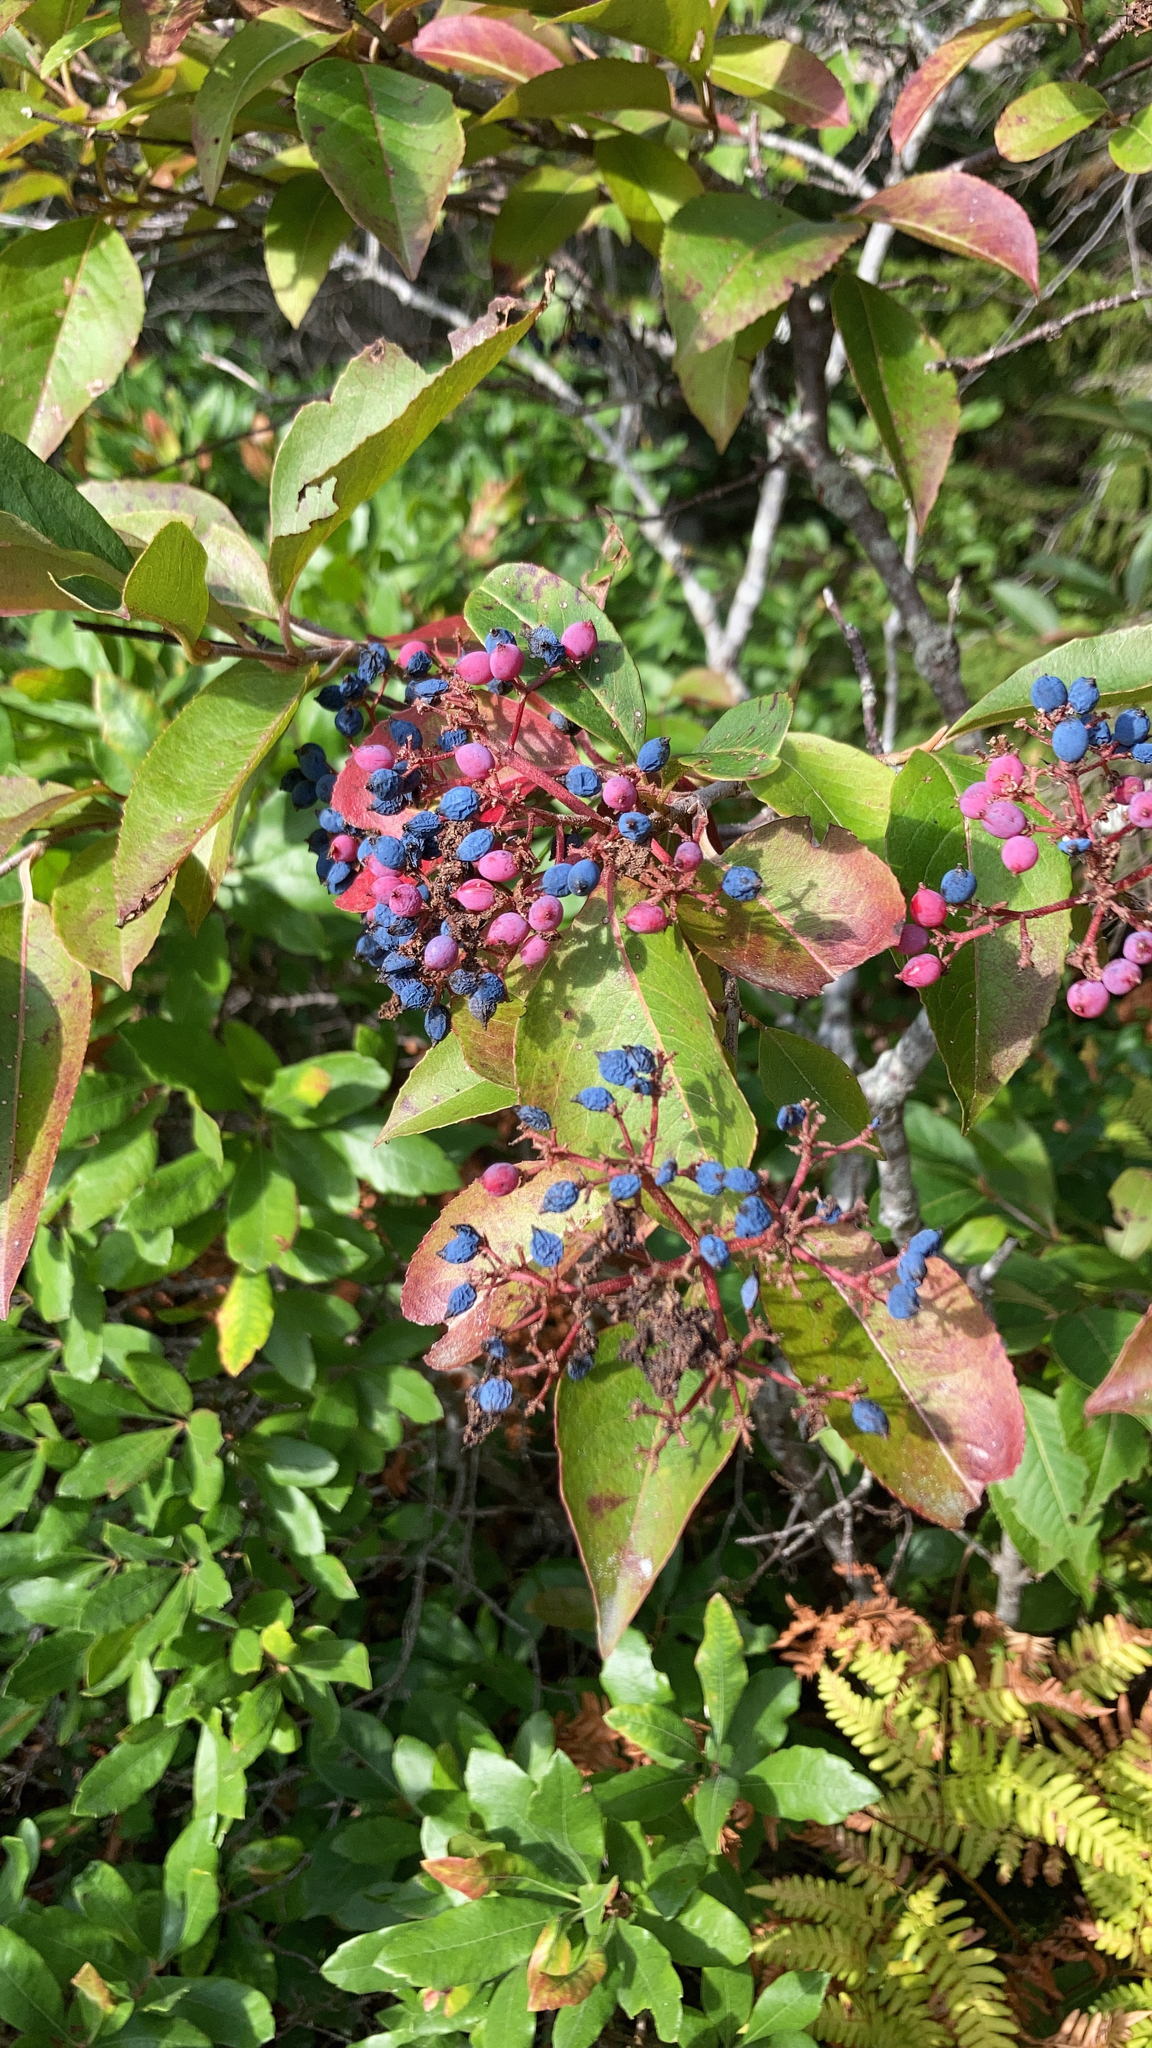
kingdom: Plantae
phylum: Tracheophyta
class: Magnoliopsida
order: Dipsacales
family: Viburnaceae
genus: Viburnum
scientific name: Viburnum cassinoides
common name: Swamp haw
